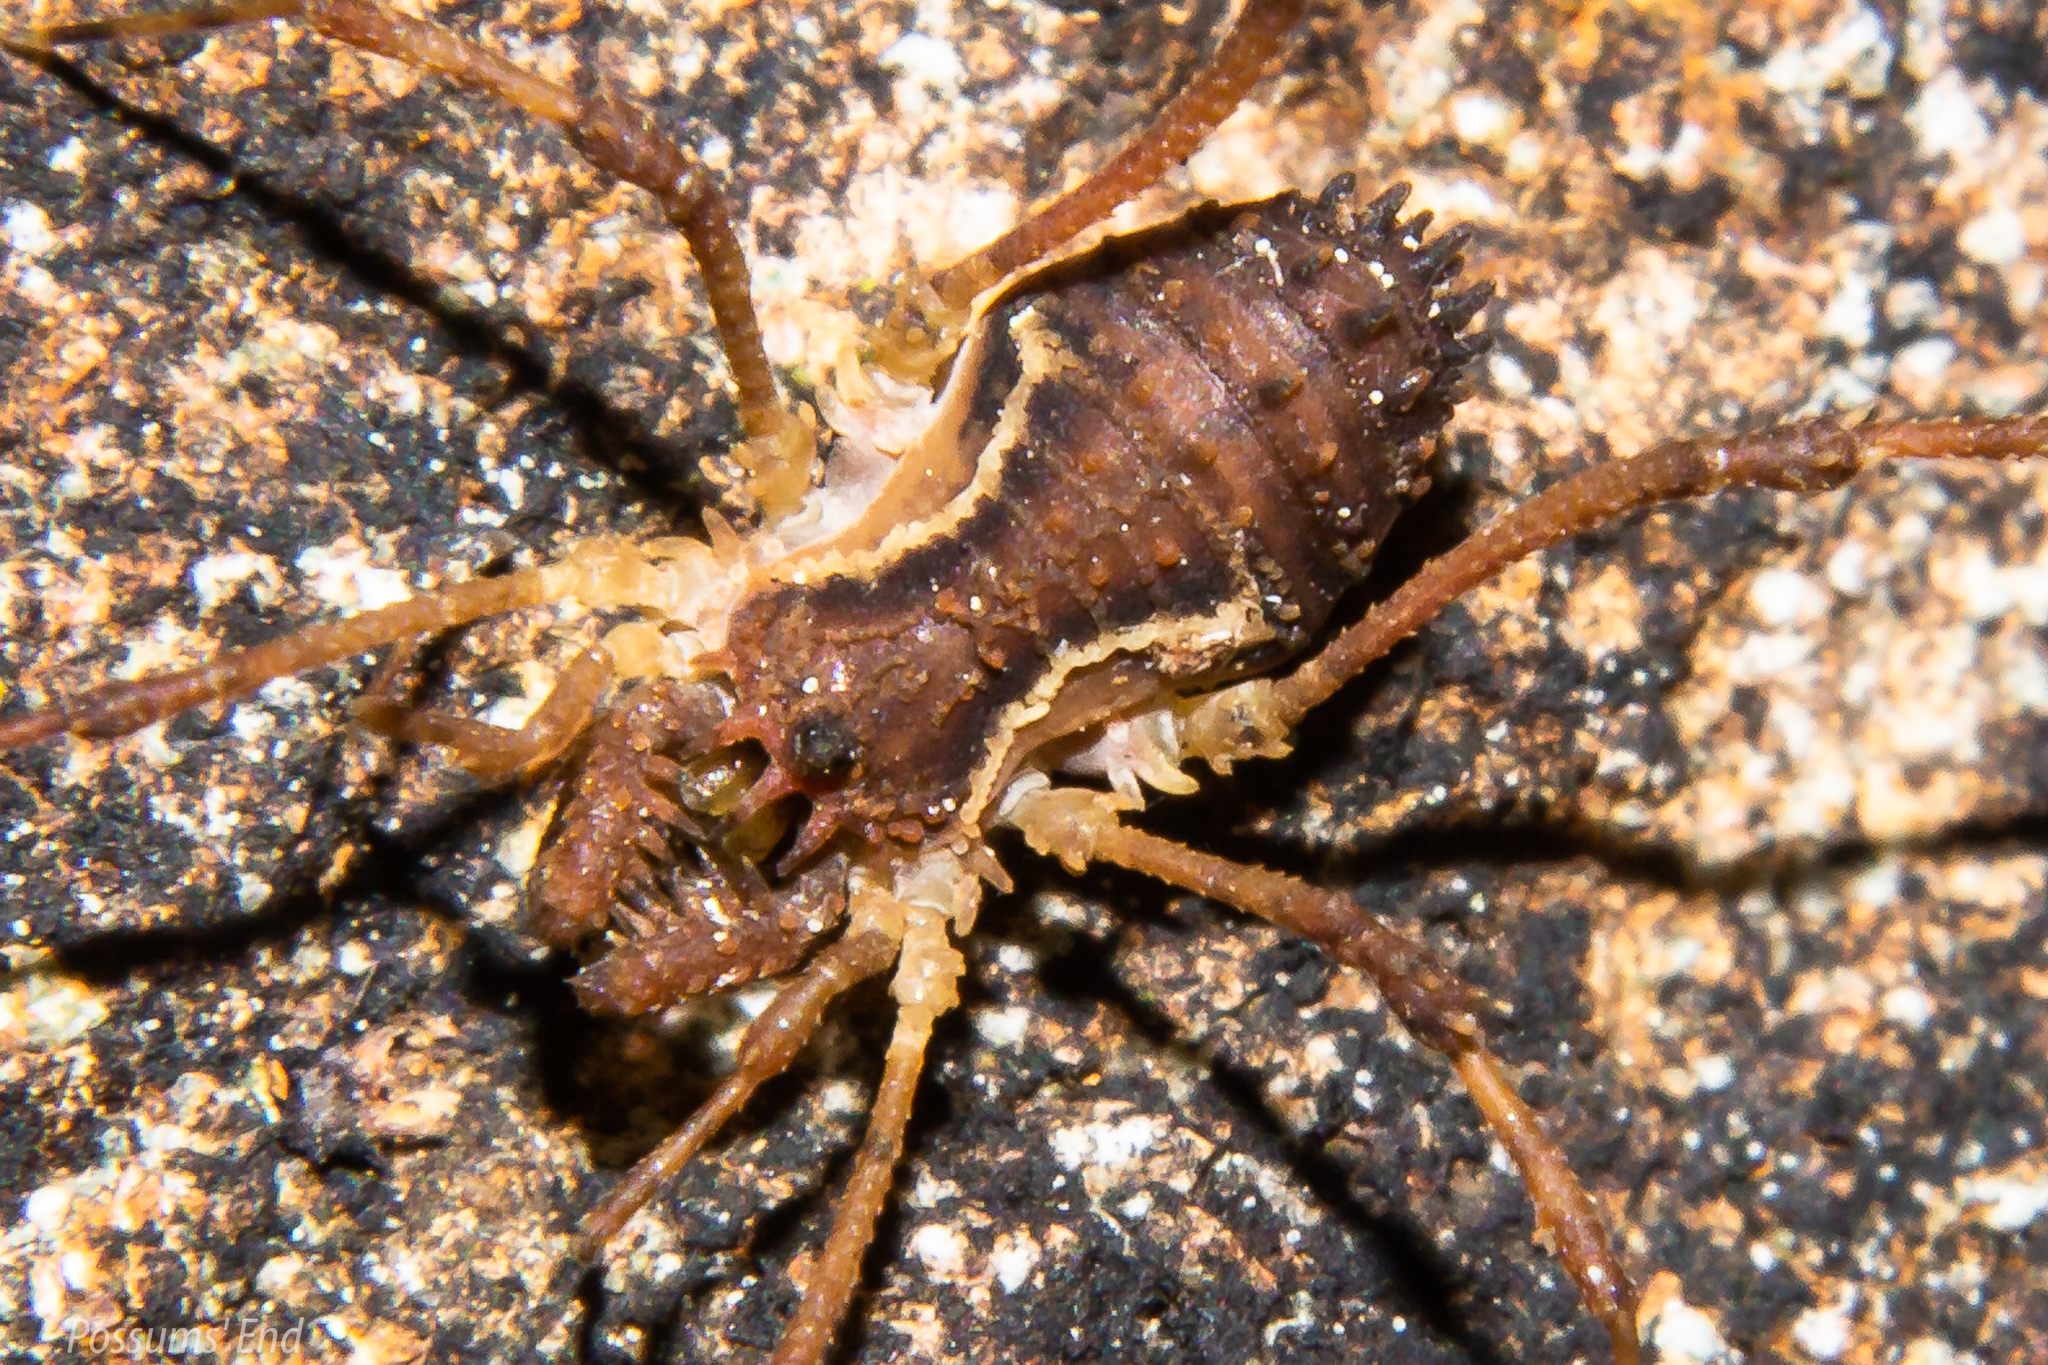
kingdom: Animalia
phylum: Arthropoda
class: Arachnida
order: Opiliones
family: Triaenonychidae
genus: Algidia
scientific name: Algidia marplesi
